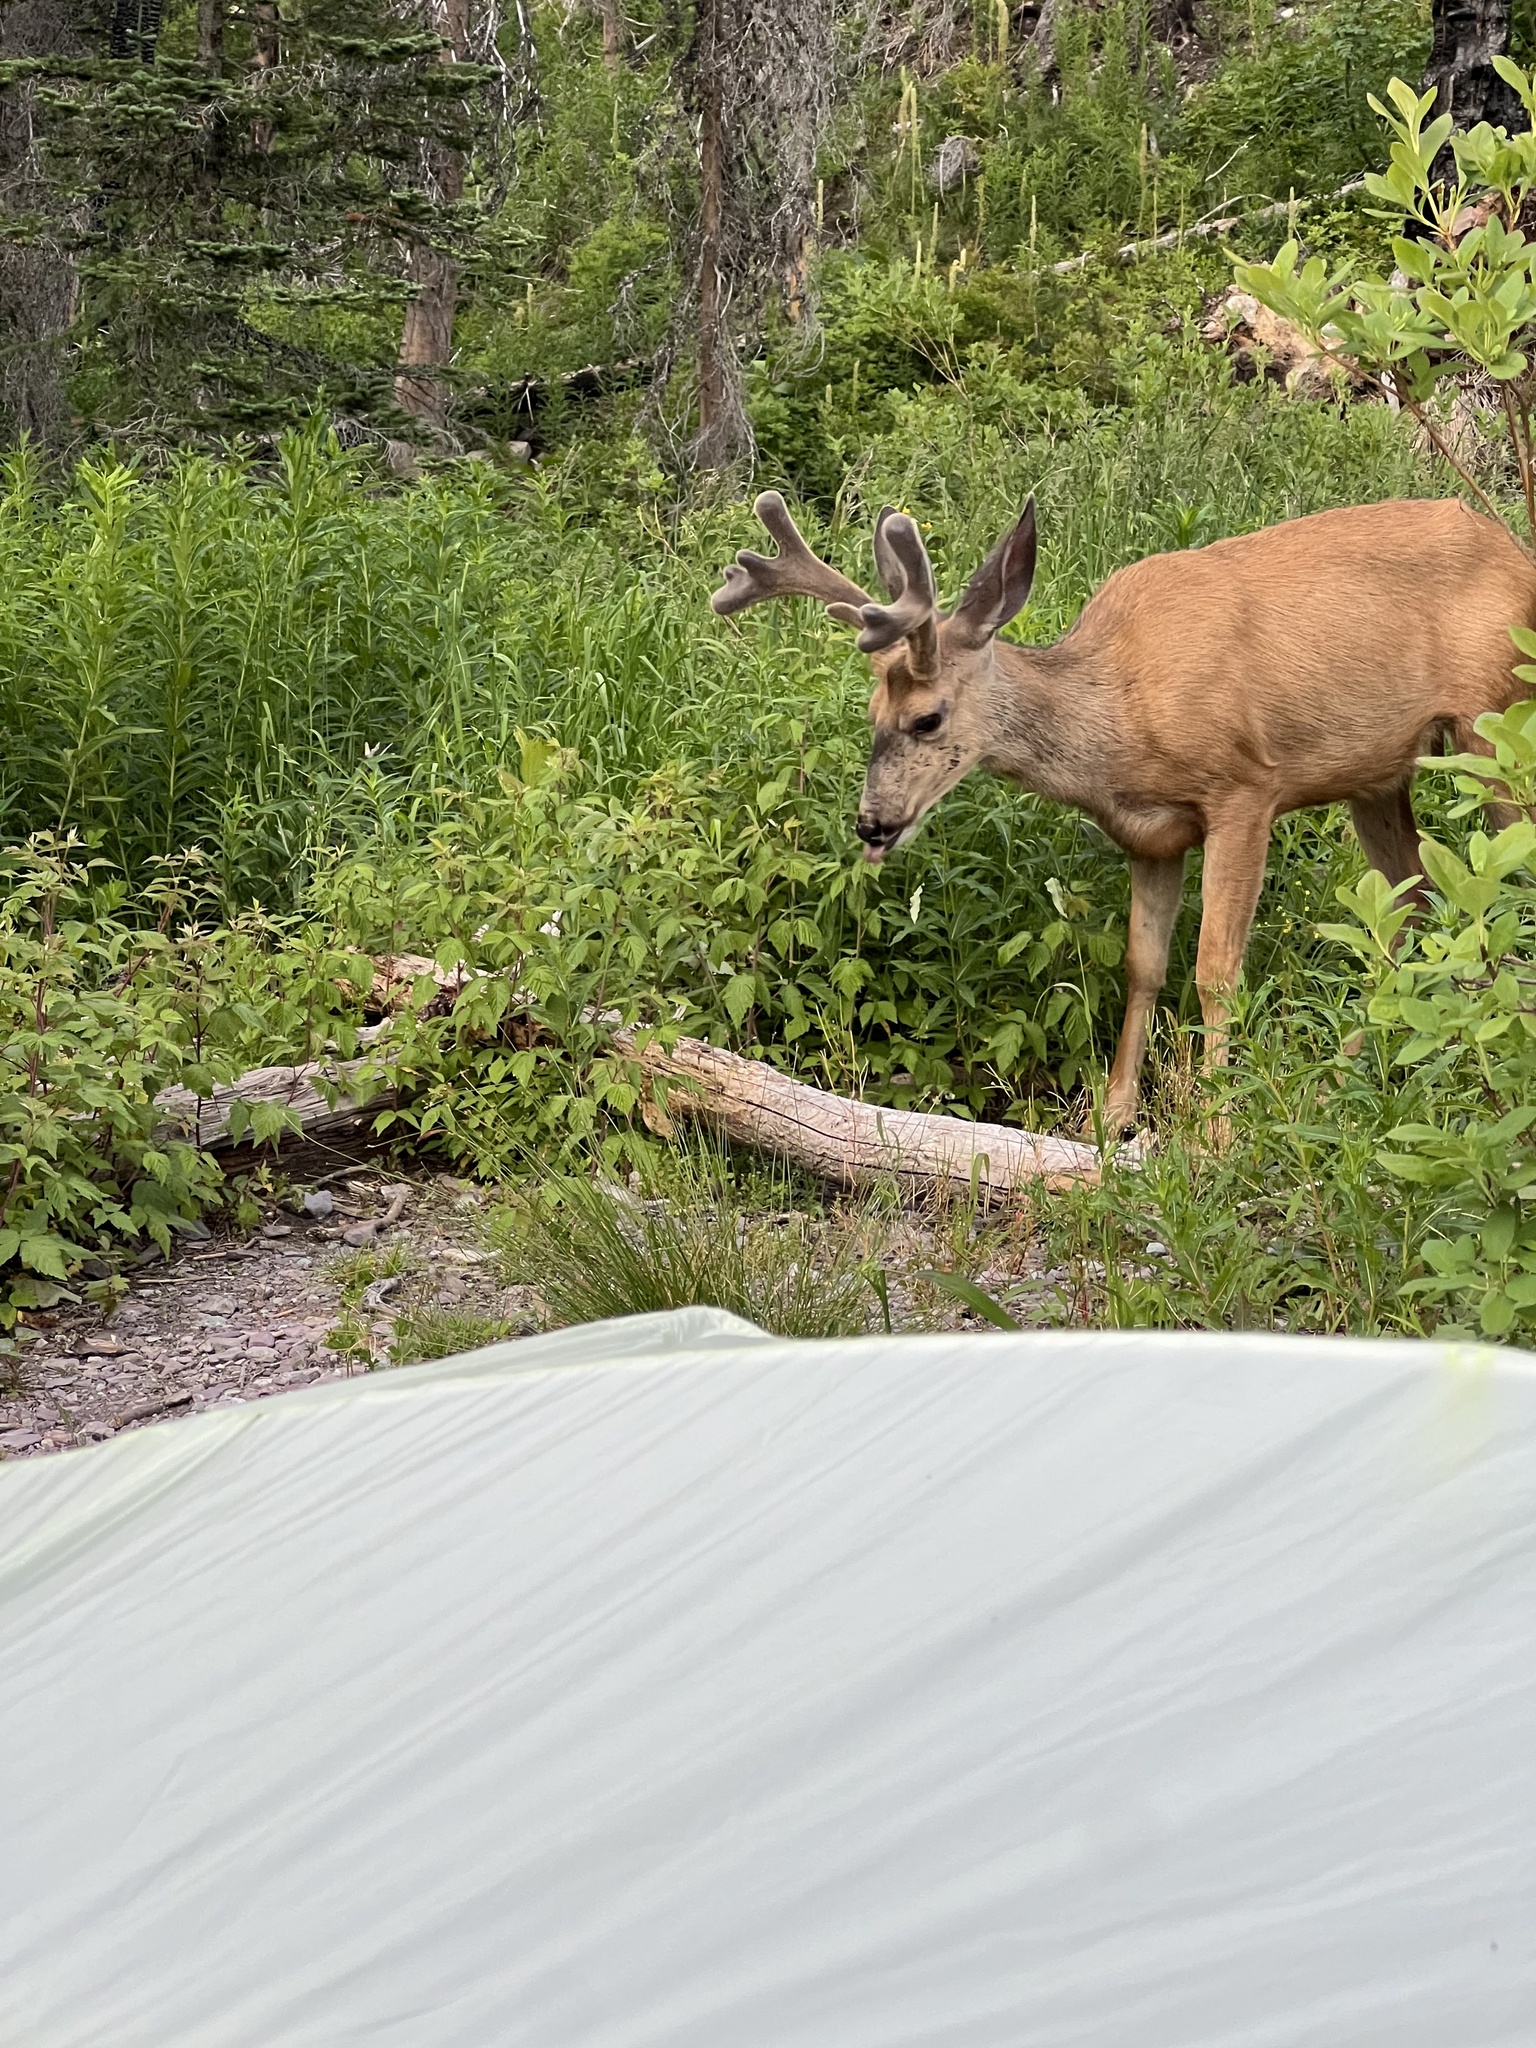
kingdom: Animalia
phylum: Chordata
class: Mammalia
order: Artiodactyla
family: Cervidae
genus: Odocoileus
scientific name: Odocoileus hemionus
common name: Mule deer
